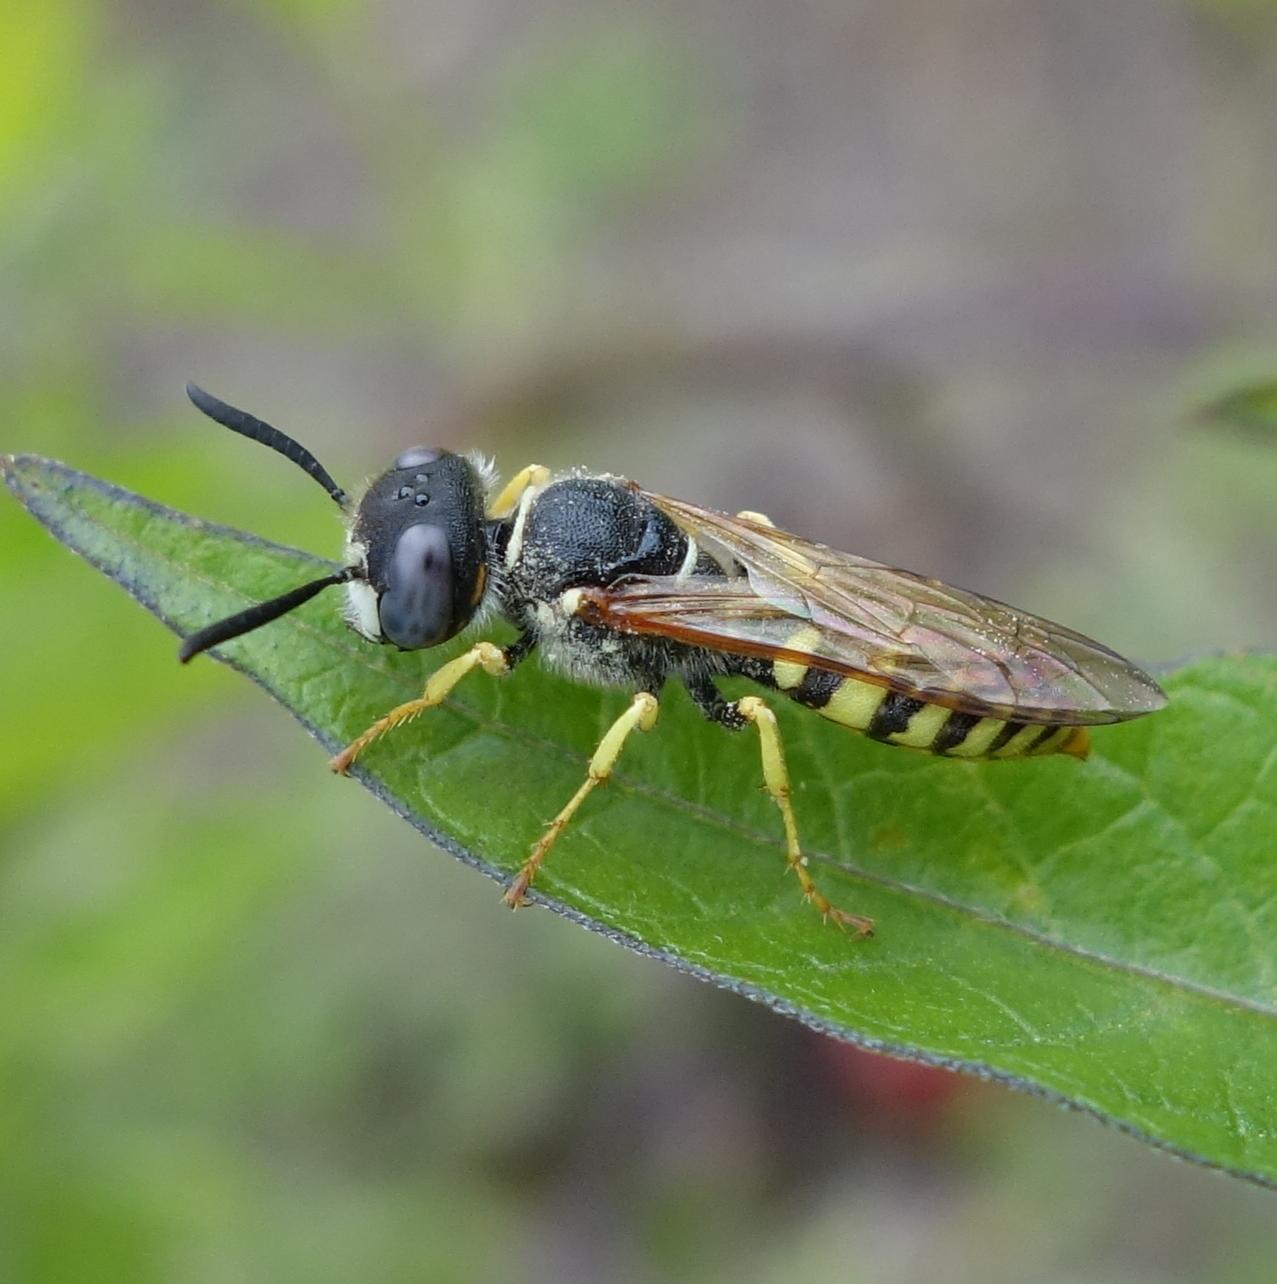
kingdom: Animalia
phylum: Arthropoda
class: Insecta
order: Hymenoptera
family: Crabronidae
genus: Philanthus
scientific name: Philanthus triangulum
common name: Bee wolf
